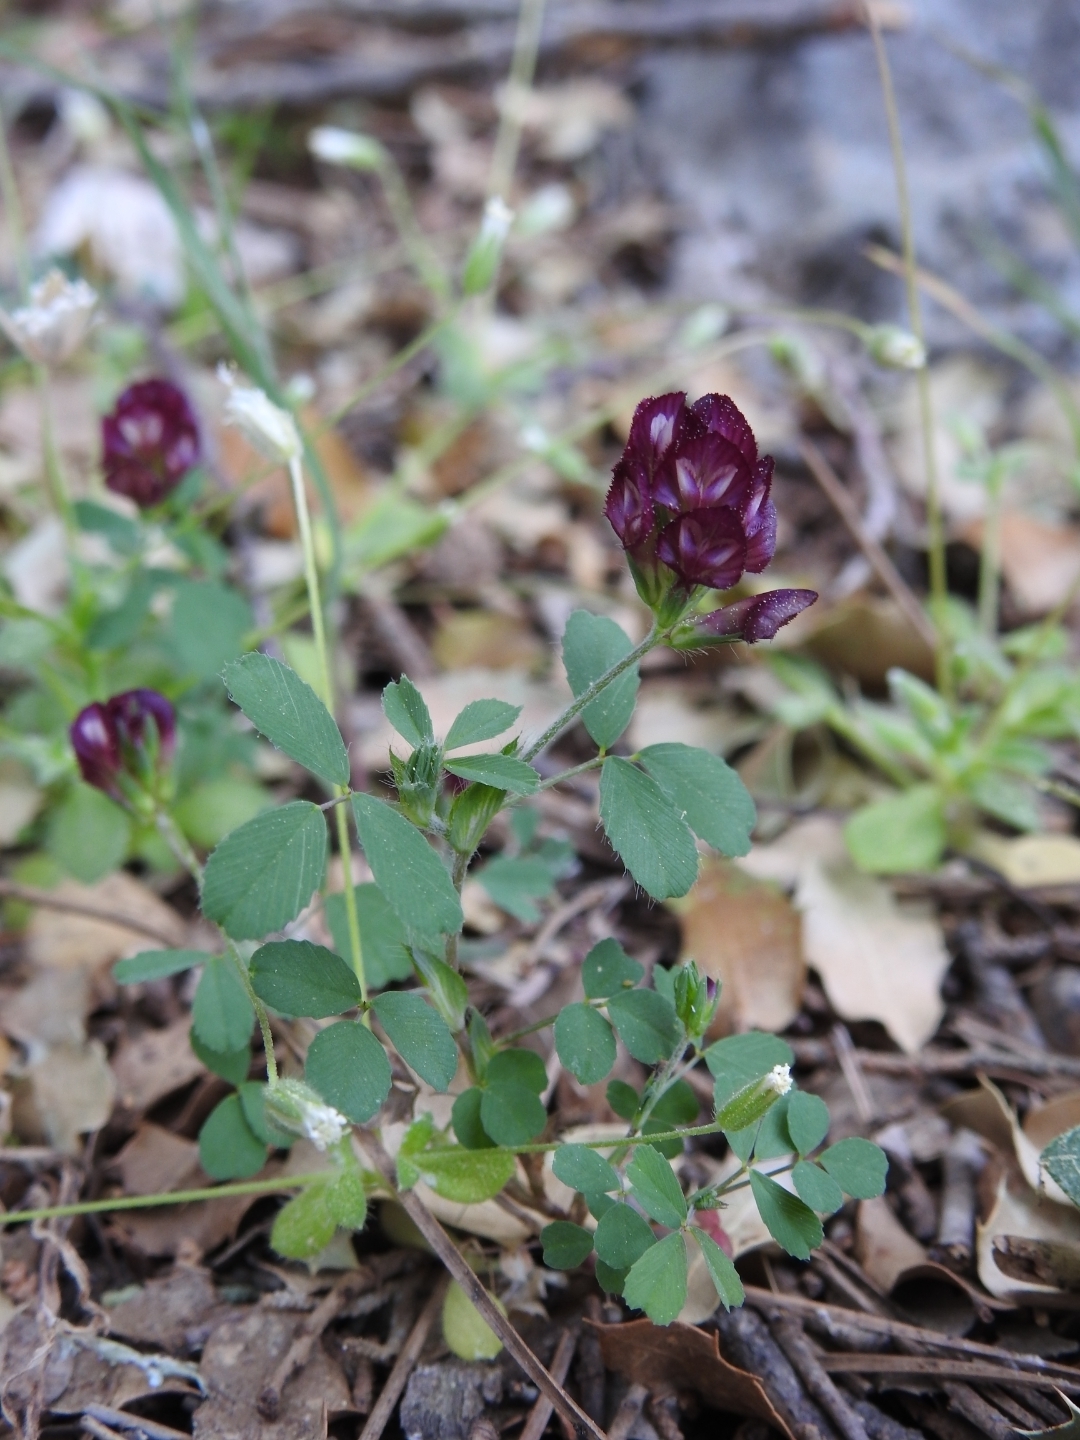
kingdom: Plantae
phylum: Tracheophyta
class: Magnoliopsida
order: Fabales
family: Fabaceae
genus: Trifolium
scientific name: Trifolium grandiflorum
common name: Large-flower hop clover
